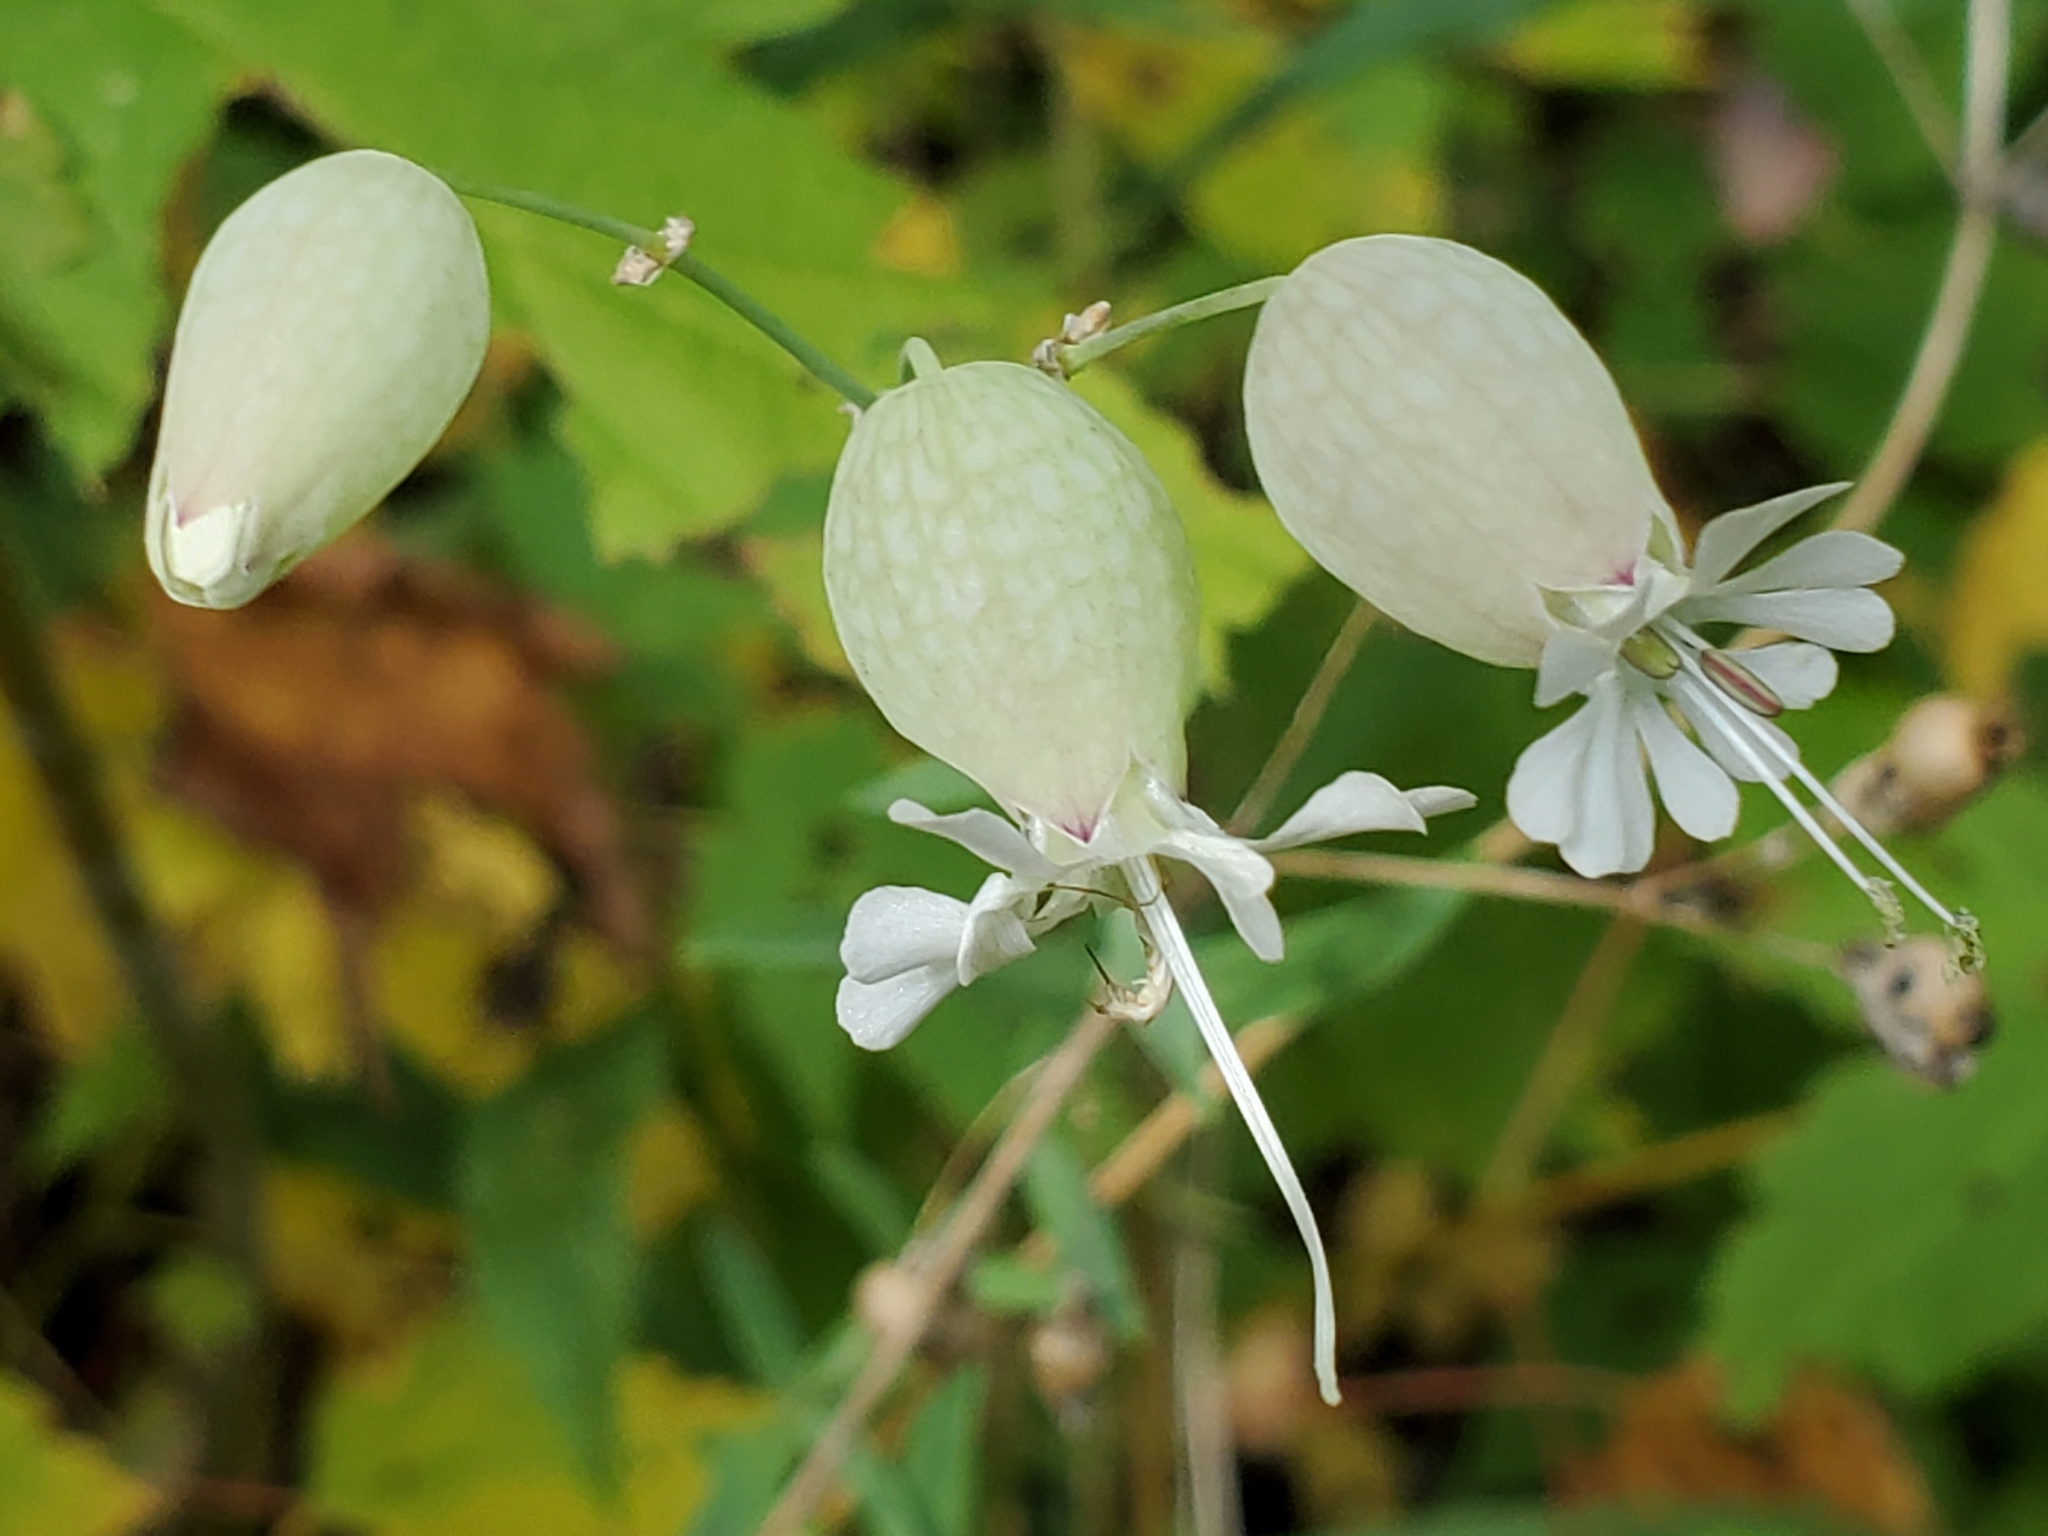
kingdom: Plantae
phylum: Tracheophyta
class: Magnoliopsida
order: Caryophyllales
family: Caryophyllaceae
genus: Silene
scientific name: Silene vulgaris
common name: Bladder campion
